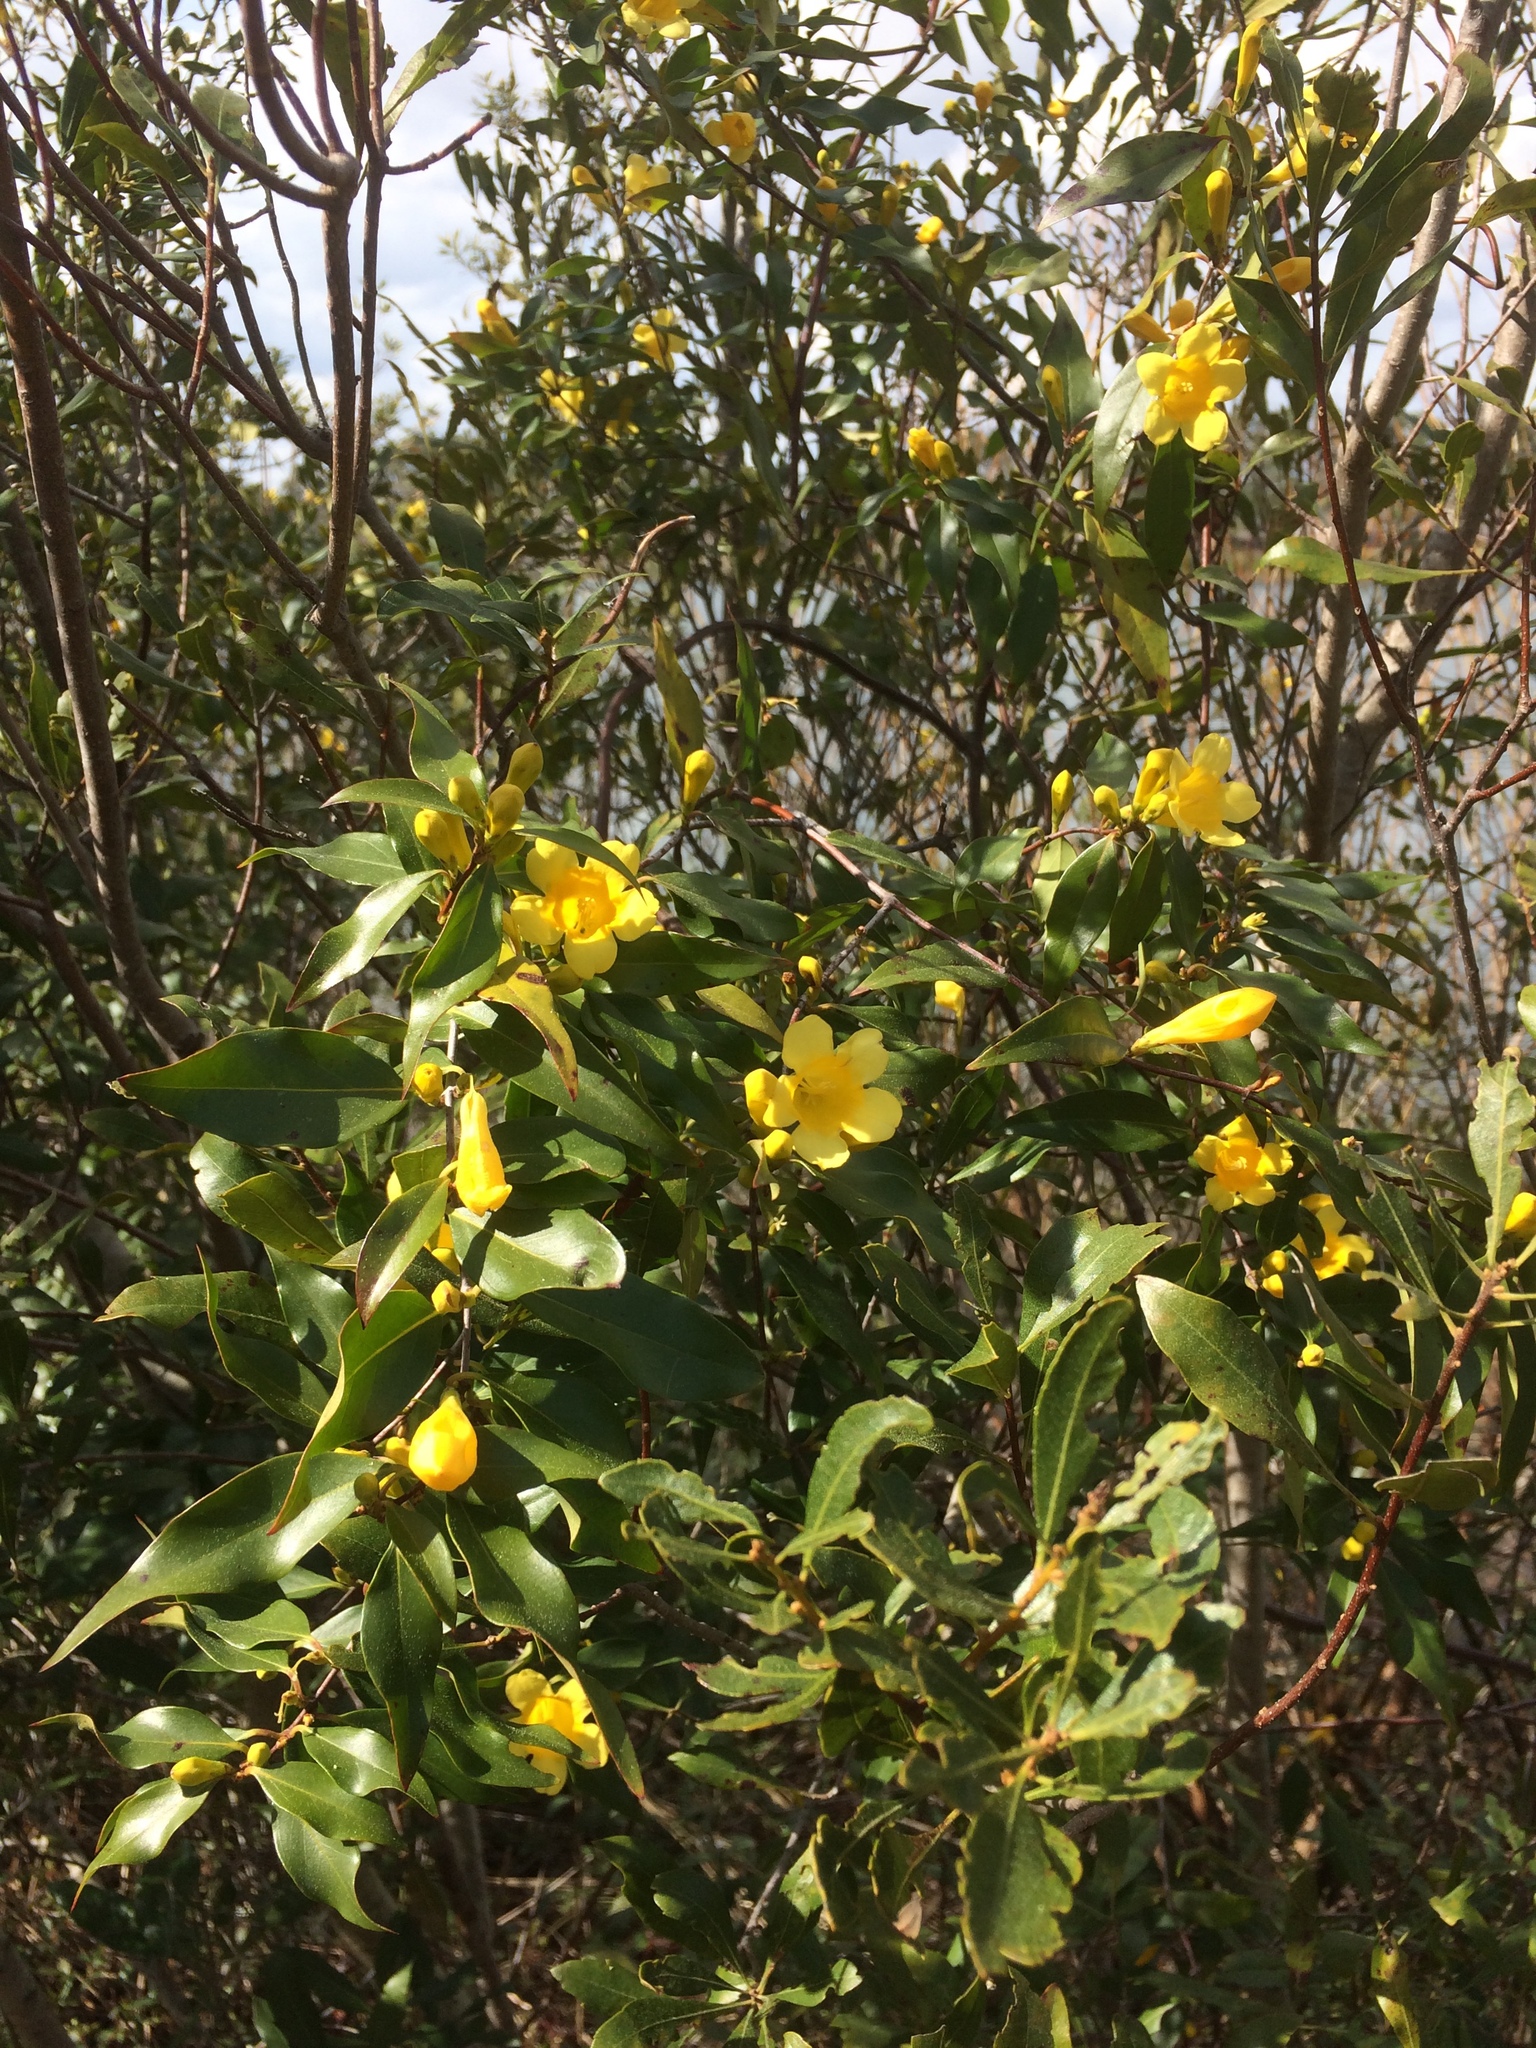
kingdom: Plantae
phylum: Tracheophyta
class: Magnoliopsida
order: Gentianales
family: Gelsemiaceae
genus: Gelsemium
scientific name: Gelsemium sempervirens
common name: Carolina-jasmine
